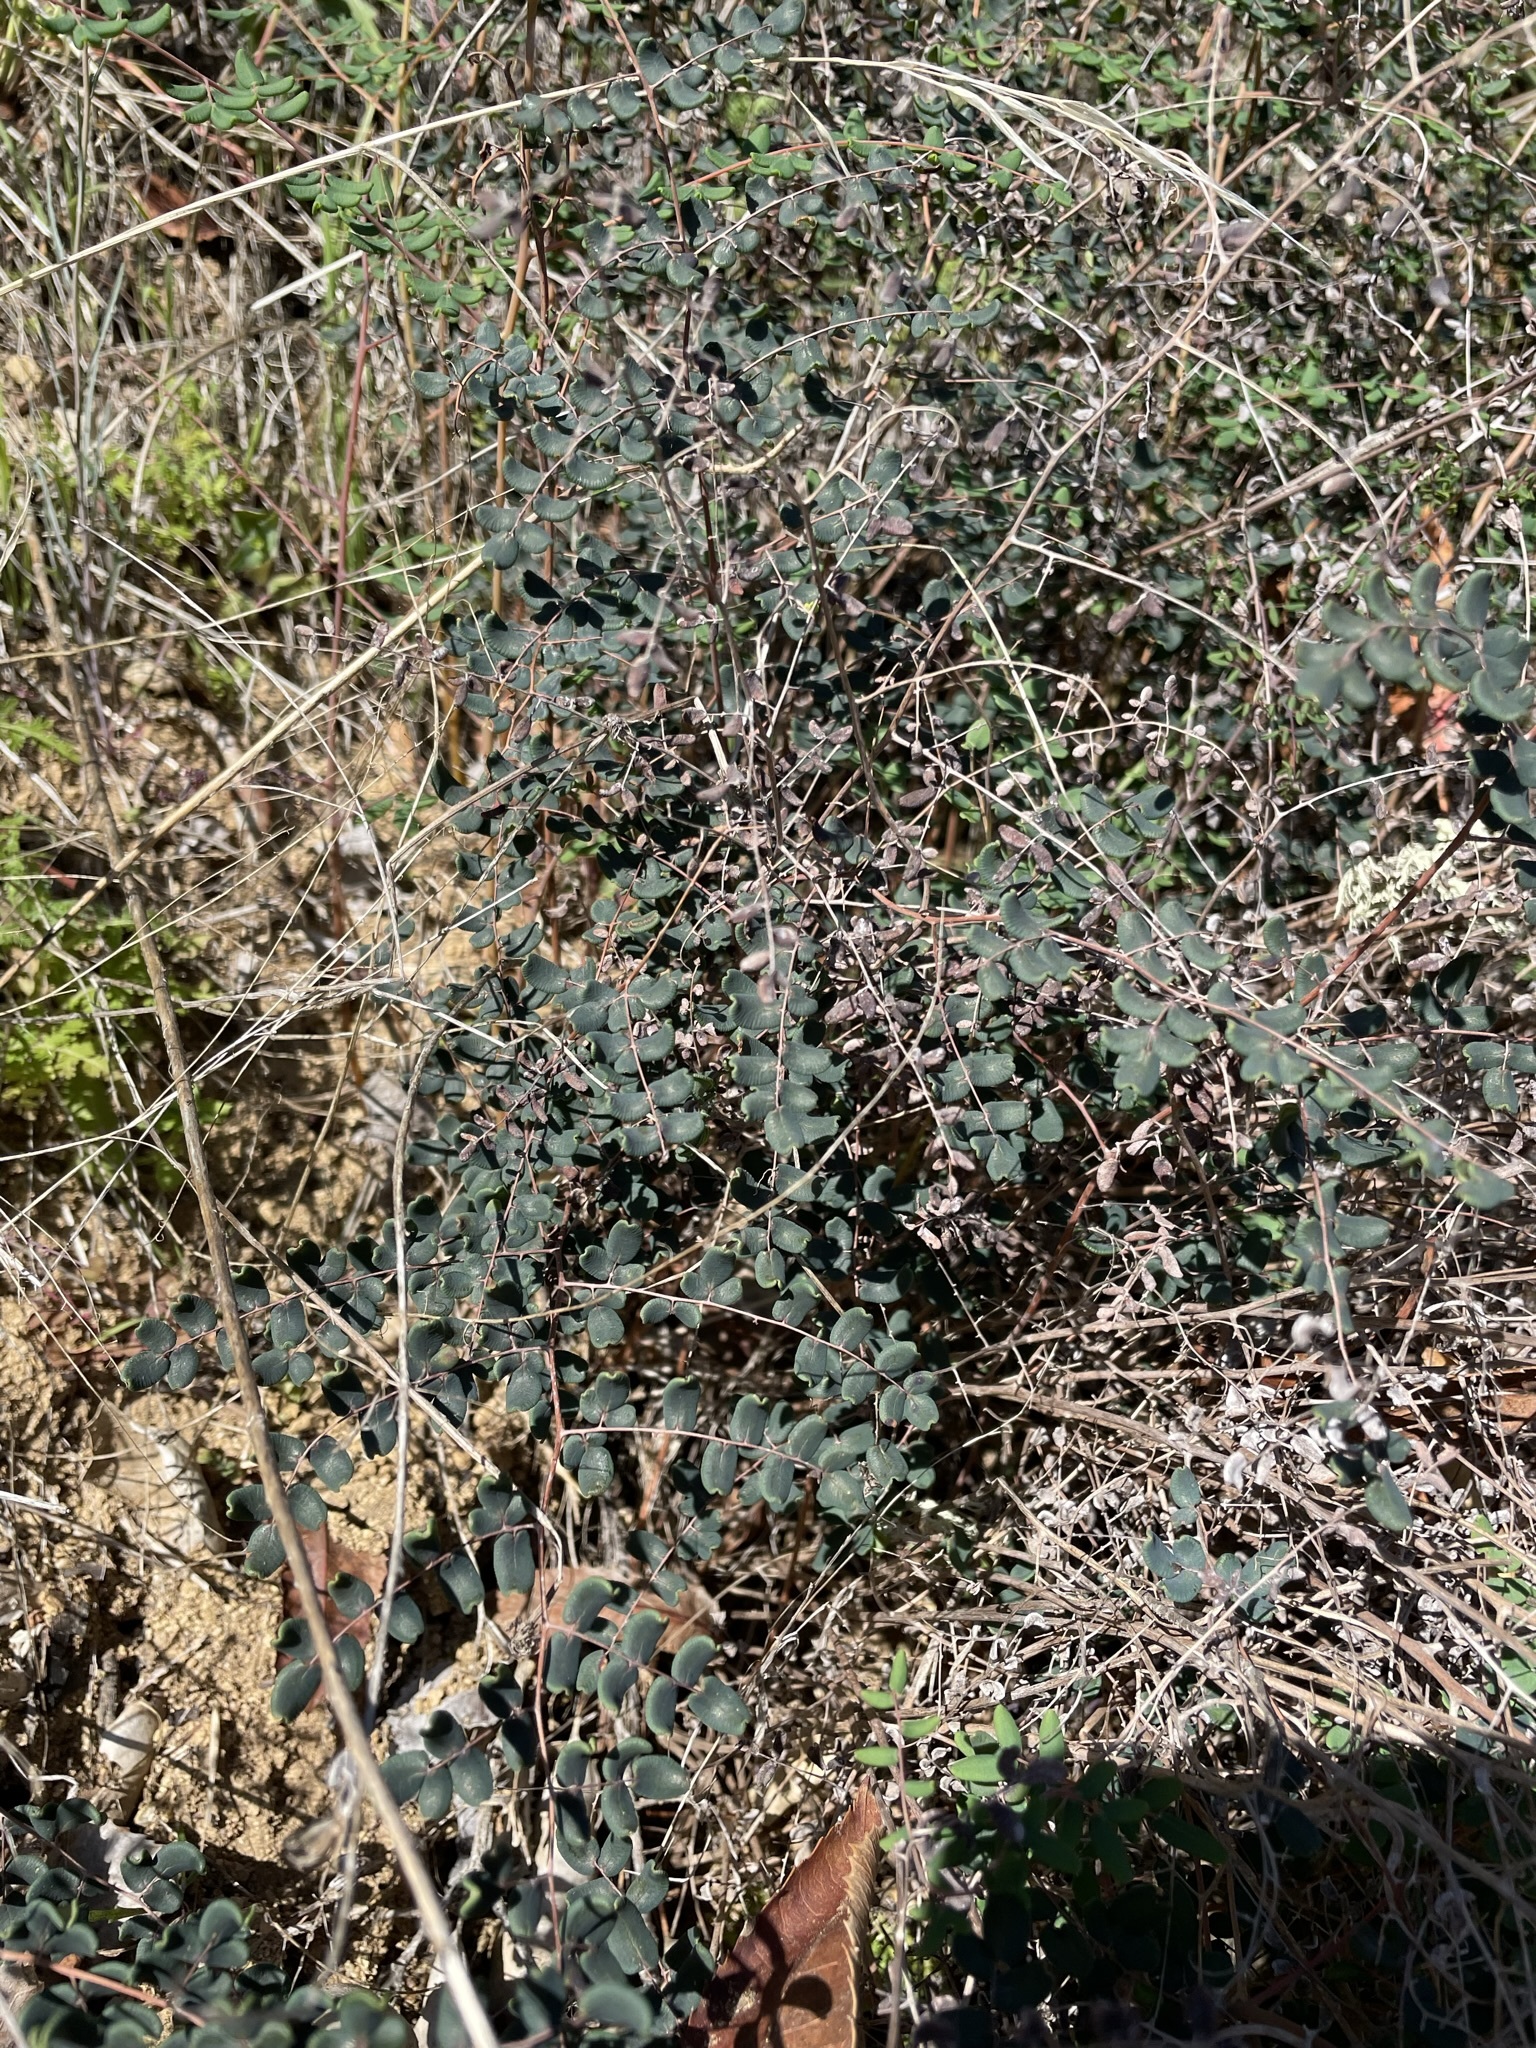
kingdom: Plantae
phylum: Tracheophyta
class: Polypodiopsida
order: Polypodiales
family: Pteridaceae
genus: Pellaea
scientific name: Pellaea andromedifolia
